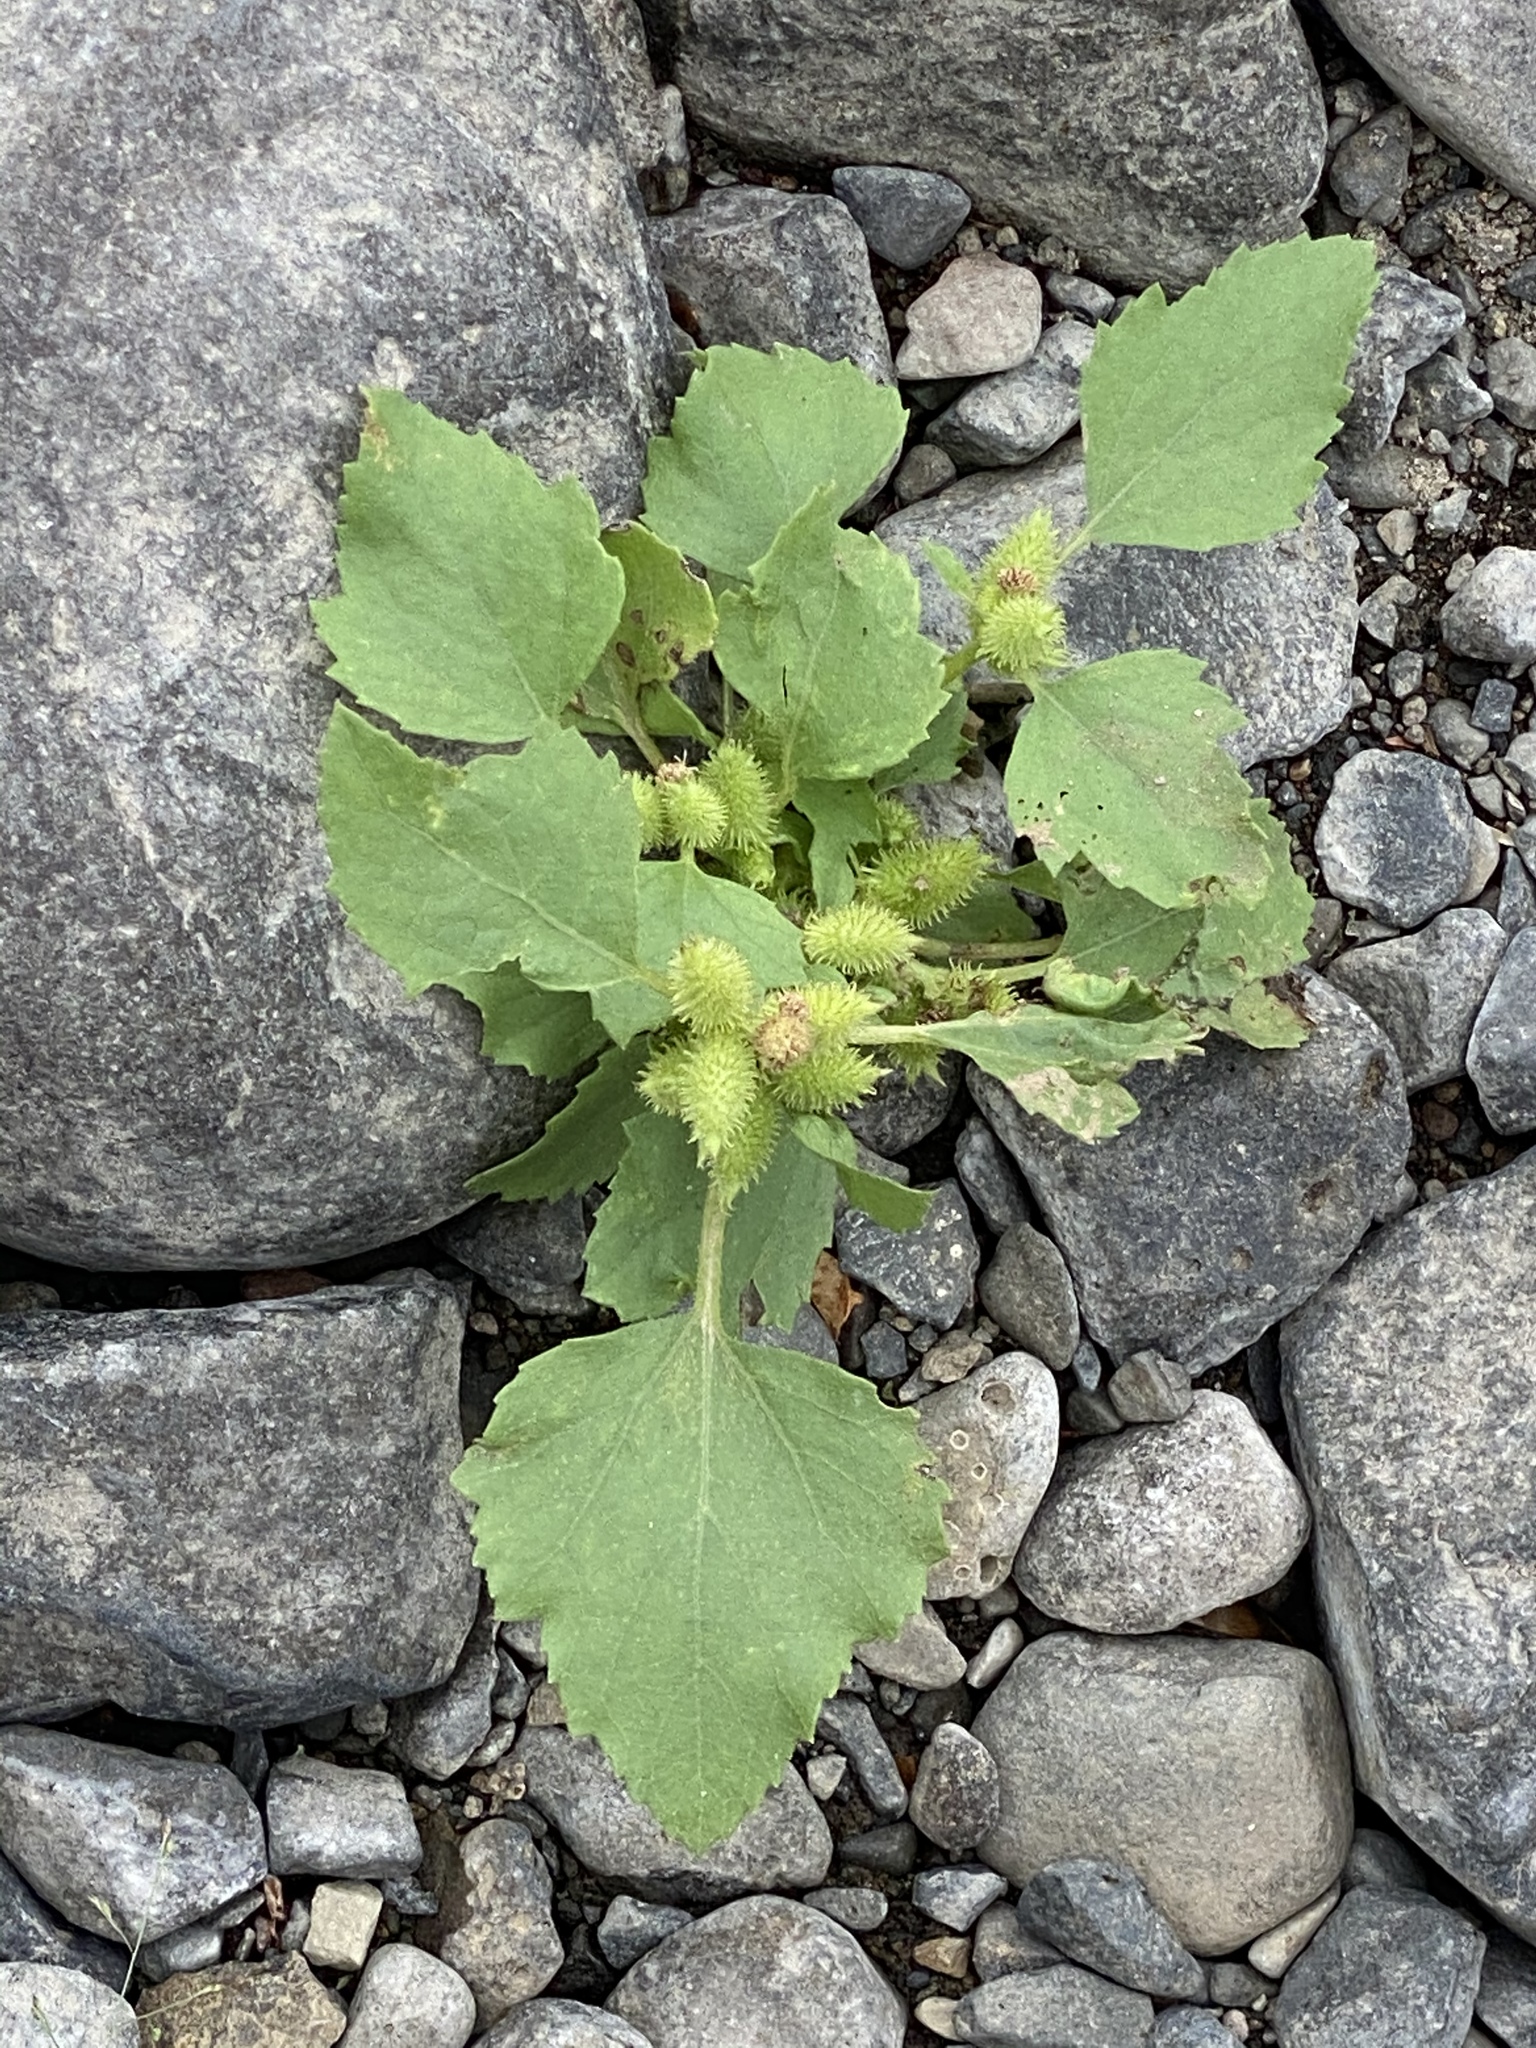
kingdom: Plantae
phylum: Tracheophyta
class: Magnoliopsida
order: Asterales
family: Asteraceae
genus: Xanthium
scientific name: Xanthium strumarium
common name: Rough cocklebur
